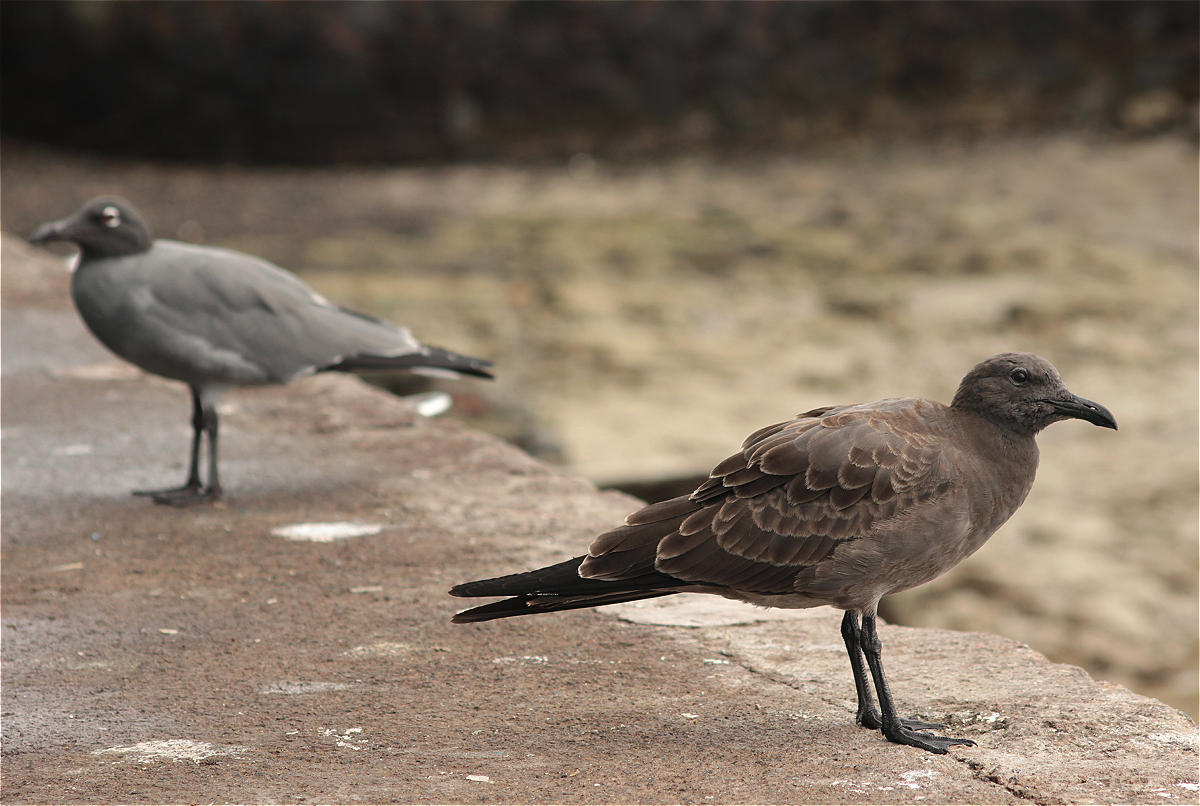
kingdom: Animalia
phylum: Chordata
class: Aves
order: Charadriiformes
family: Laridae
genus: Leucophaeus
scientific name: Leucophaeus fuliginosus
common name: Lava gull
